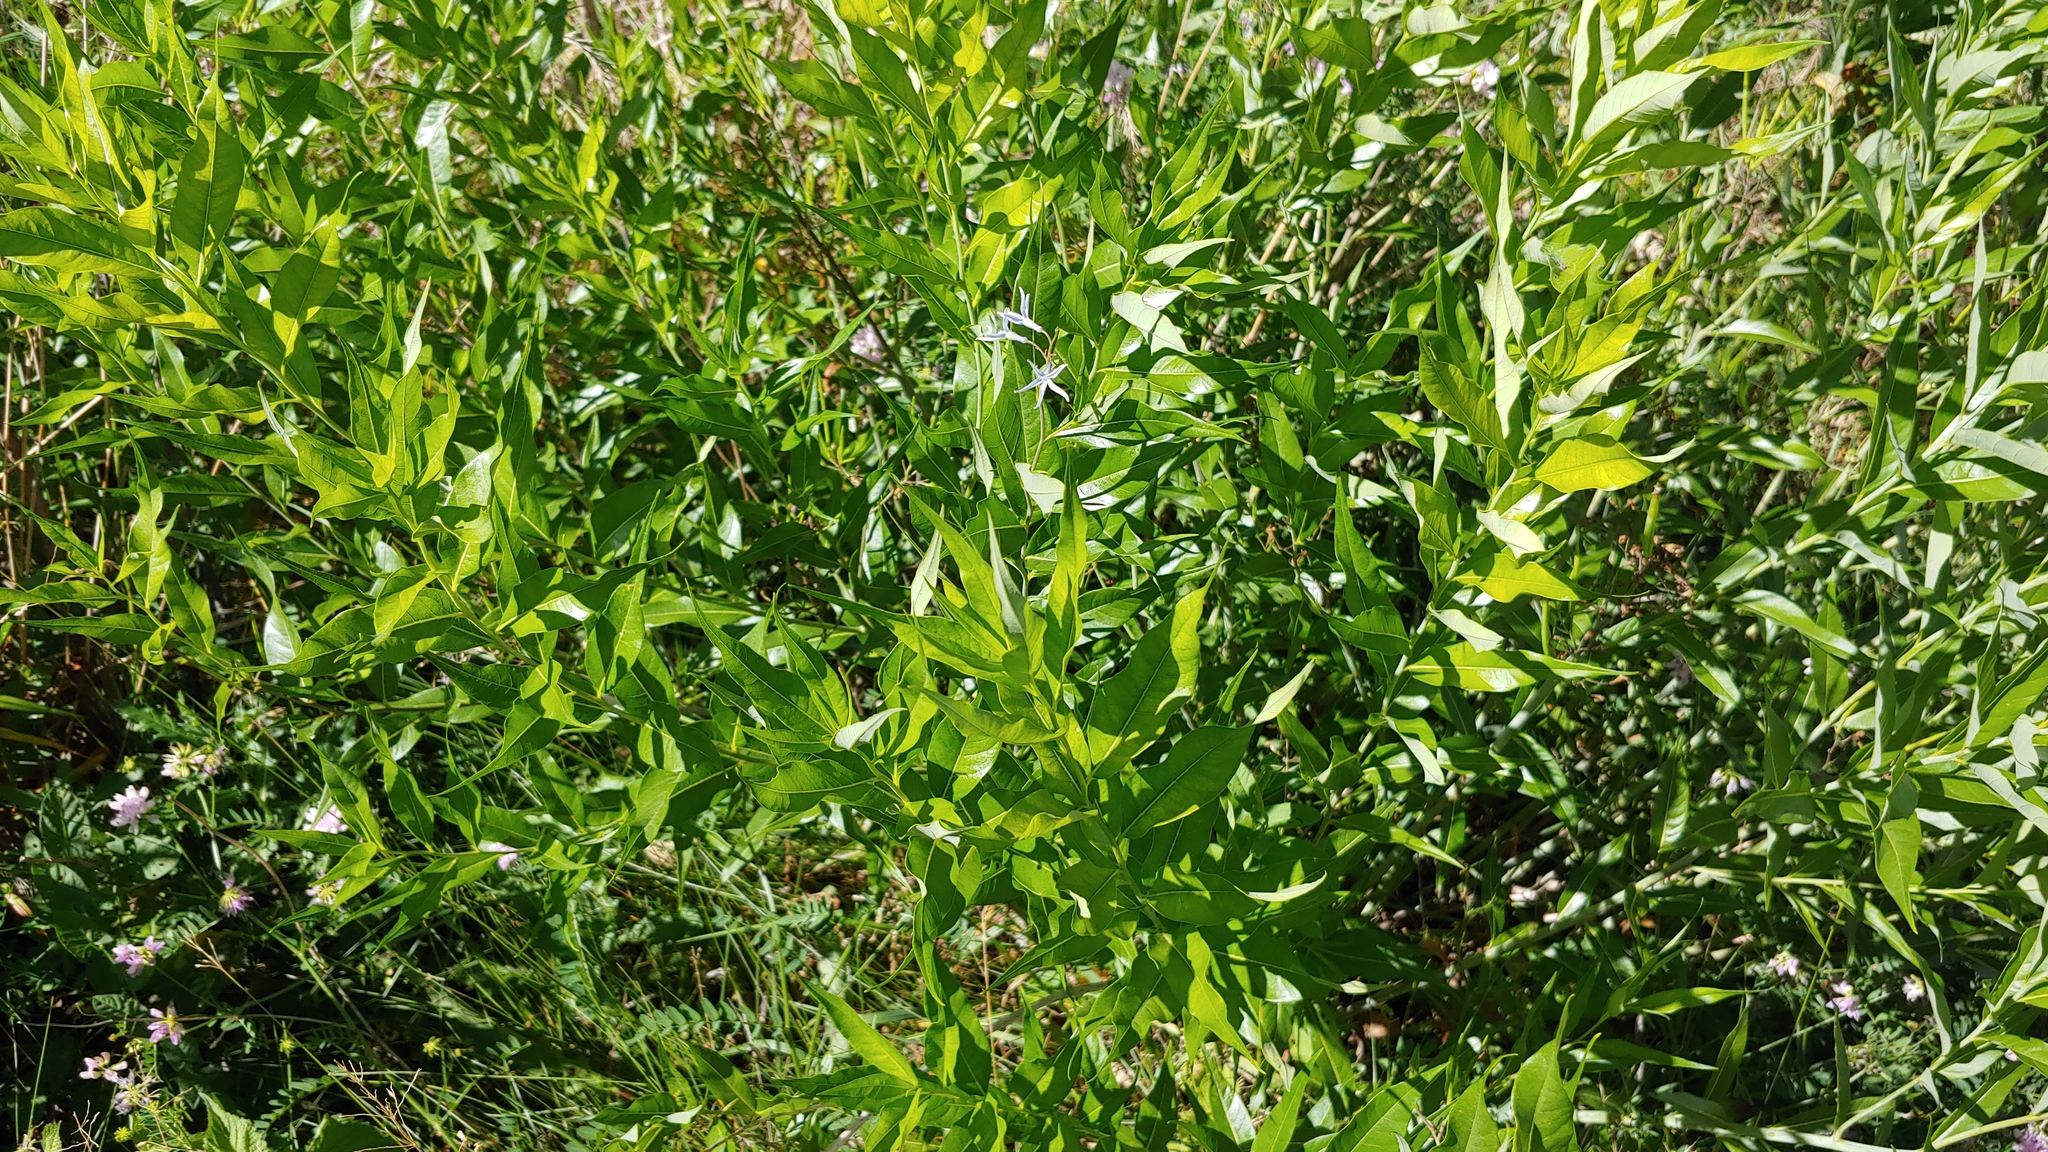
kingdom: Plantae
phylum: Tracheophyta
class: Magnoliopsida
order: Gentianales
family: Apocynaceae
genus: Amsonia
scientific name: Amsonia tabernaemontana
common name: Texas-star
